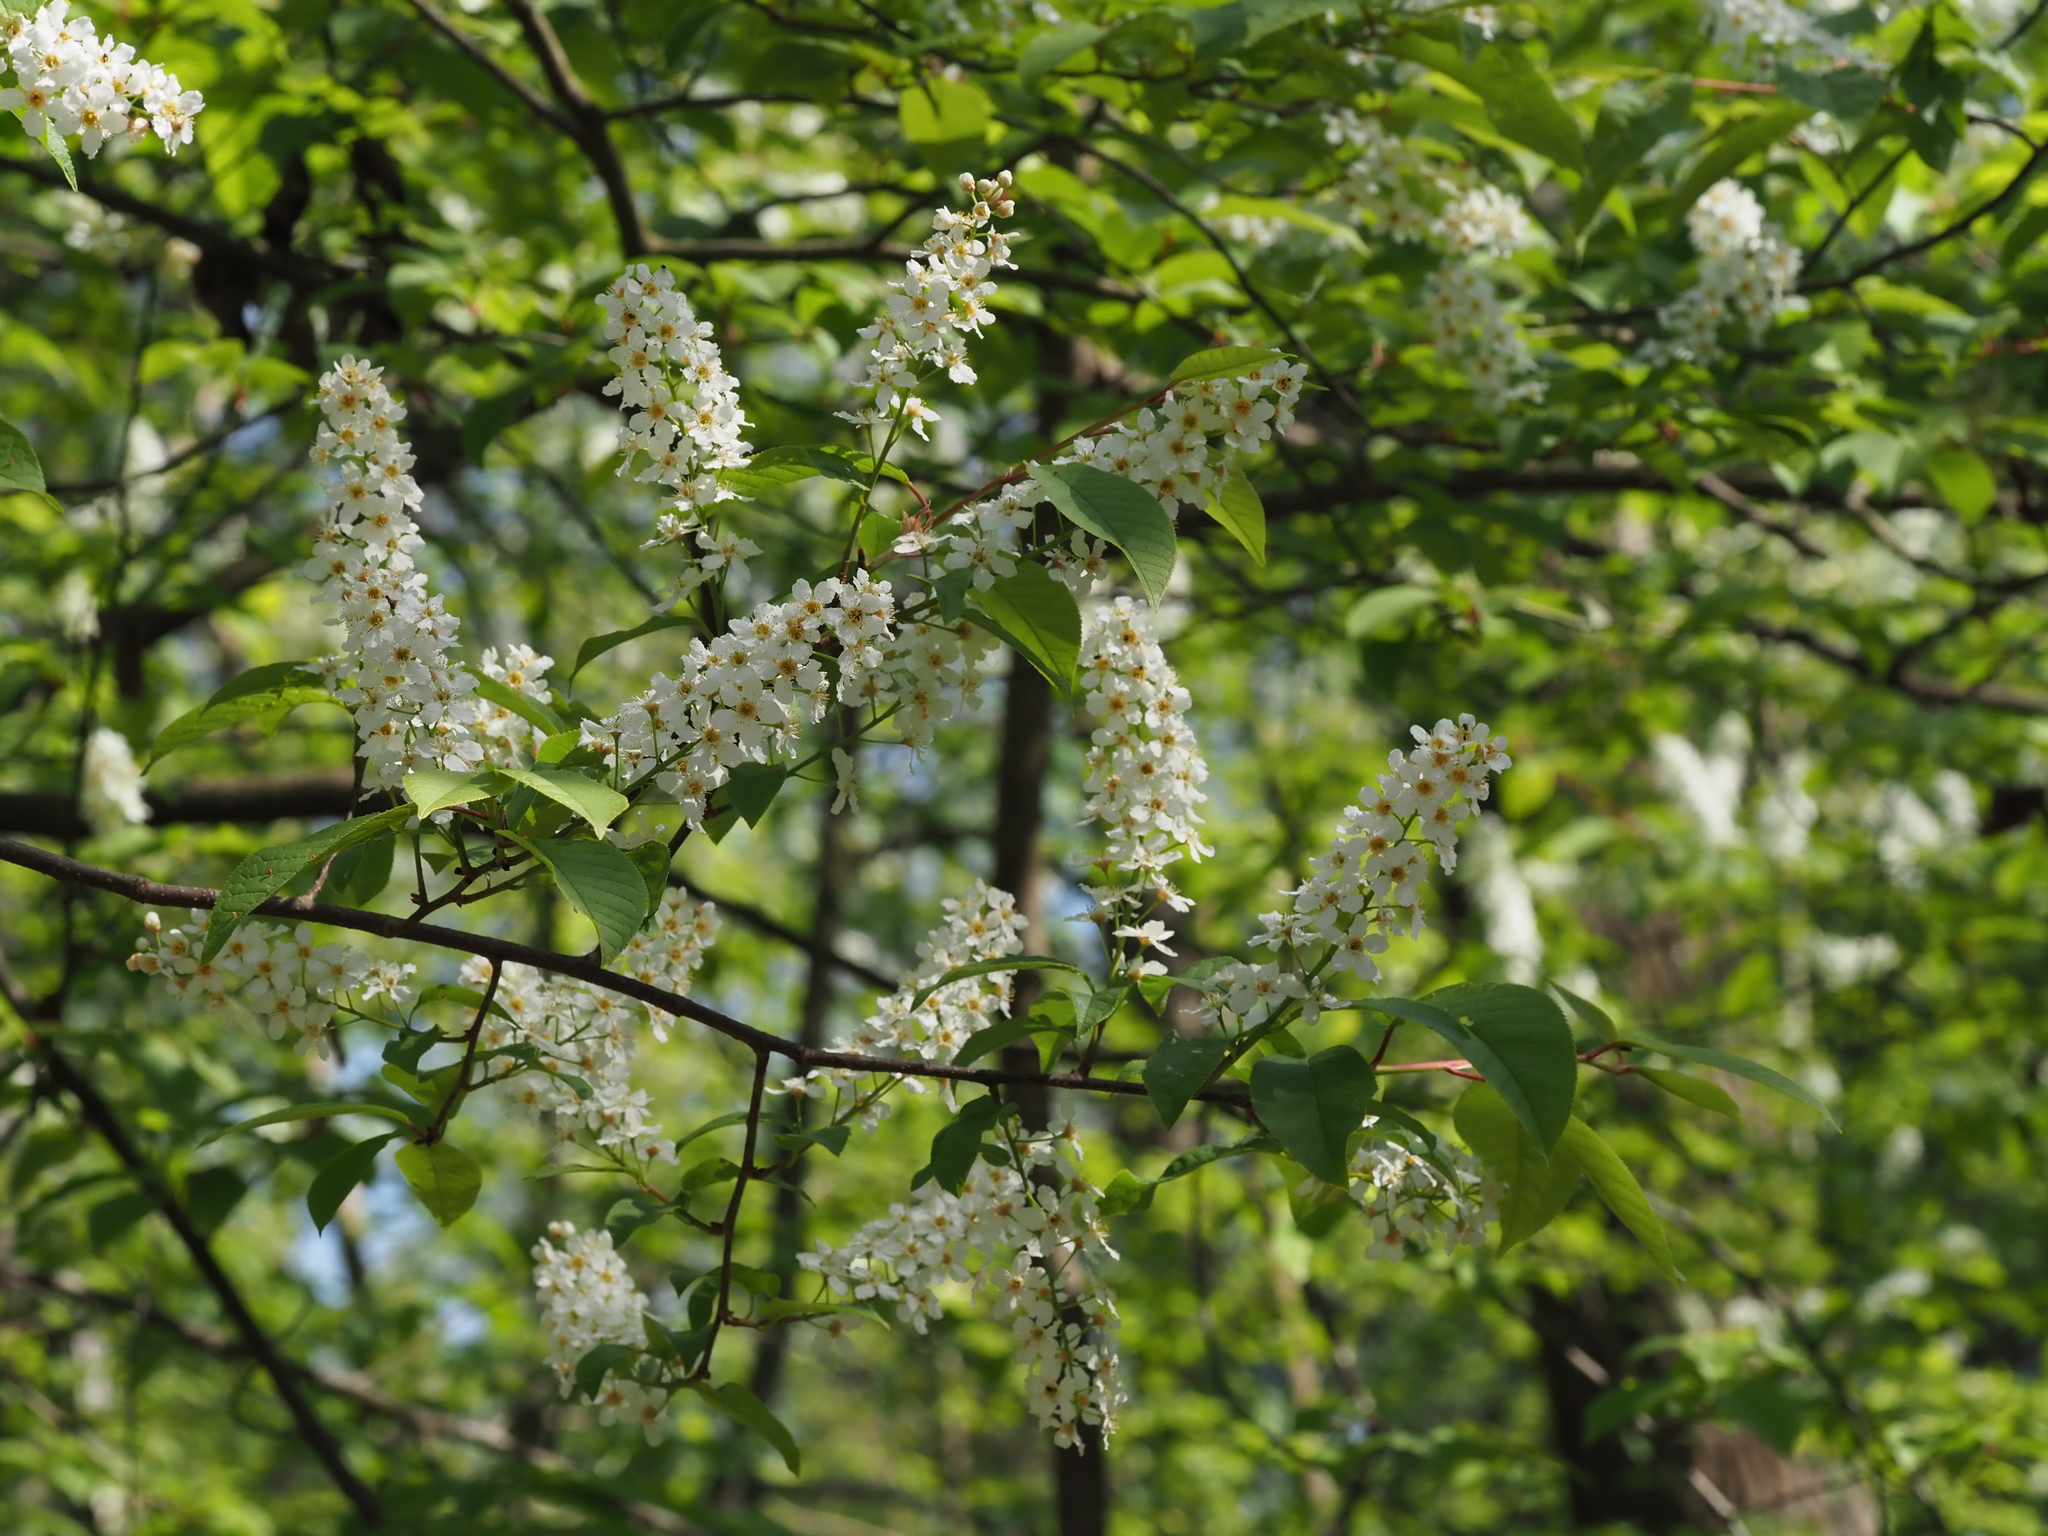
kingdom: Plantae
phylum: Tracheophyta
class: Magnoliopsida
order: Rosales
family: Rosaceae
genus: Prunus
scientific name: Prunus padus
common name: Bird cherry
